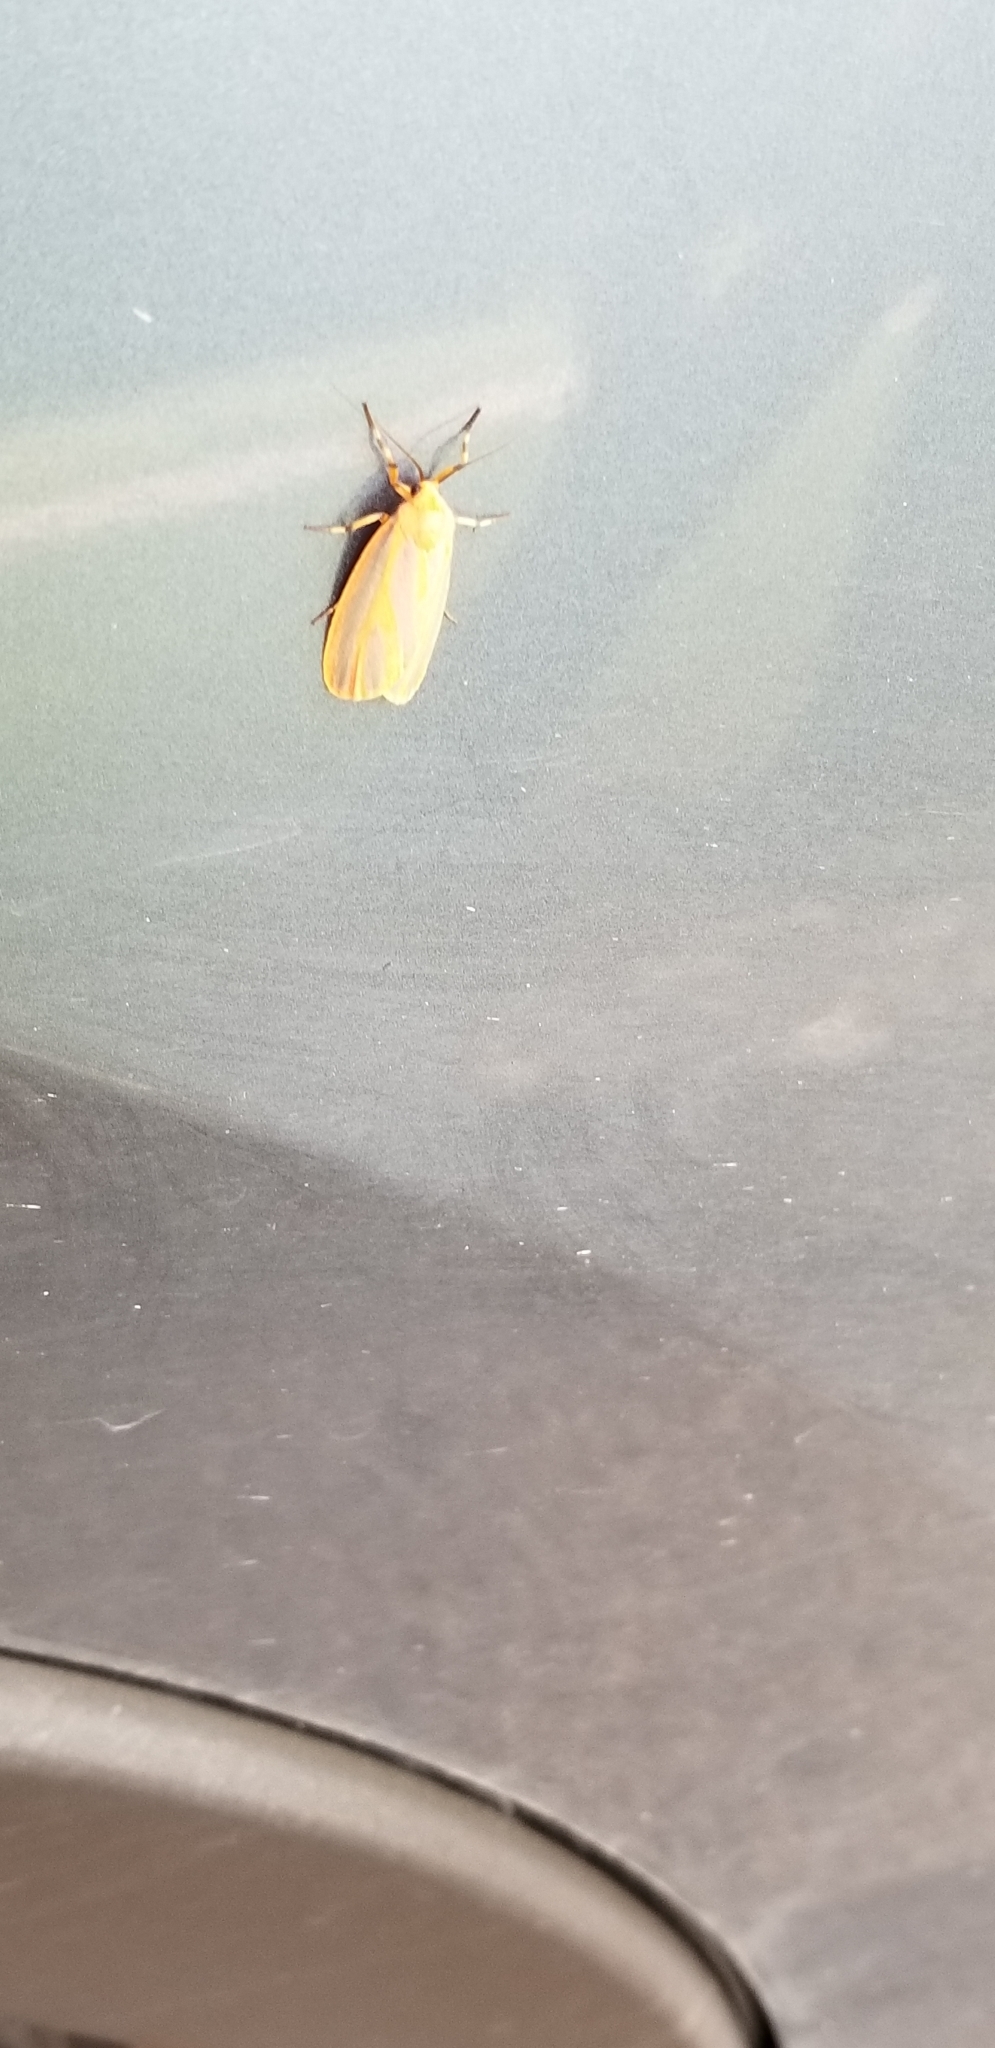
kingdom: Animalia
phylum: Arthropoda
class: Insecta
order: Lepidoptera
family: Erebidae
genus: Hypoprepia
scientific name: Hypoprepia fucosa
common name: Painted lichen moth
